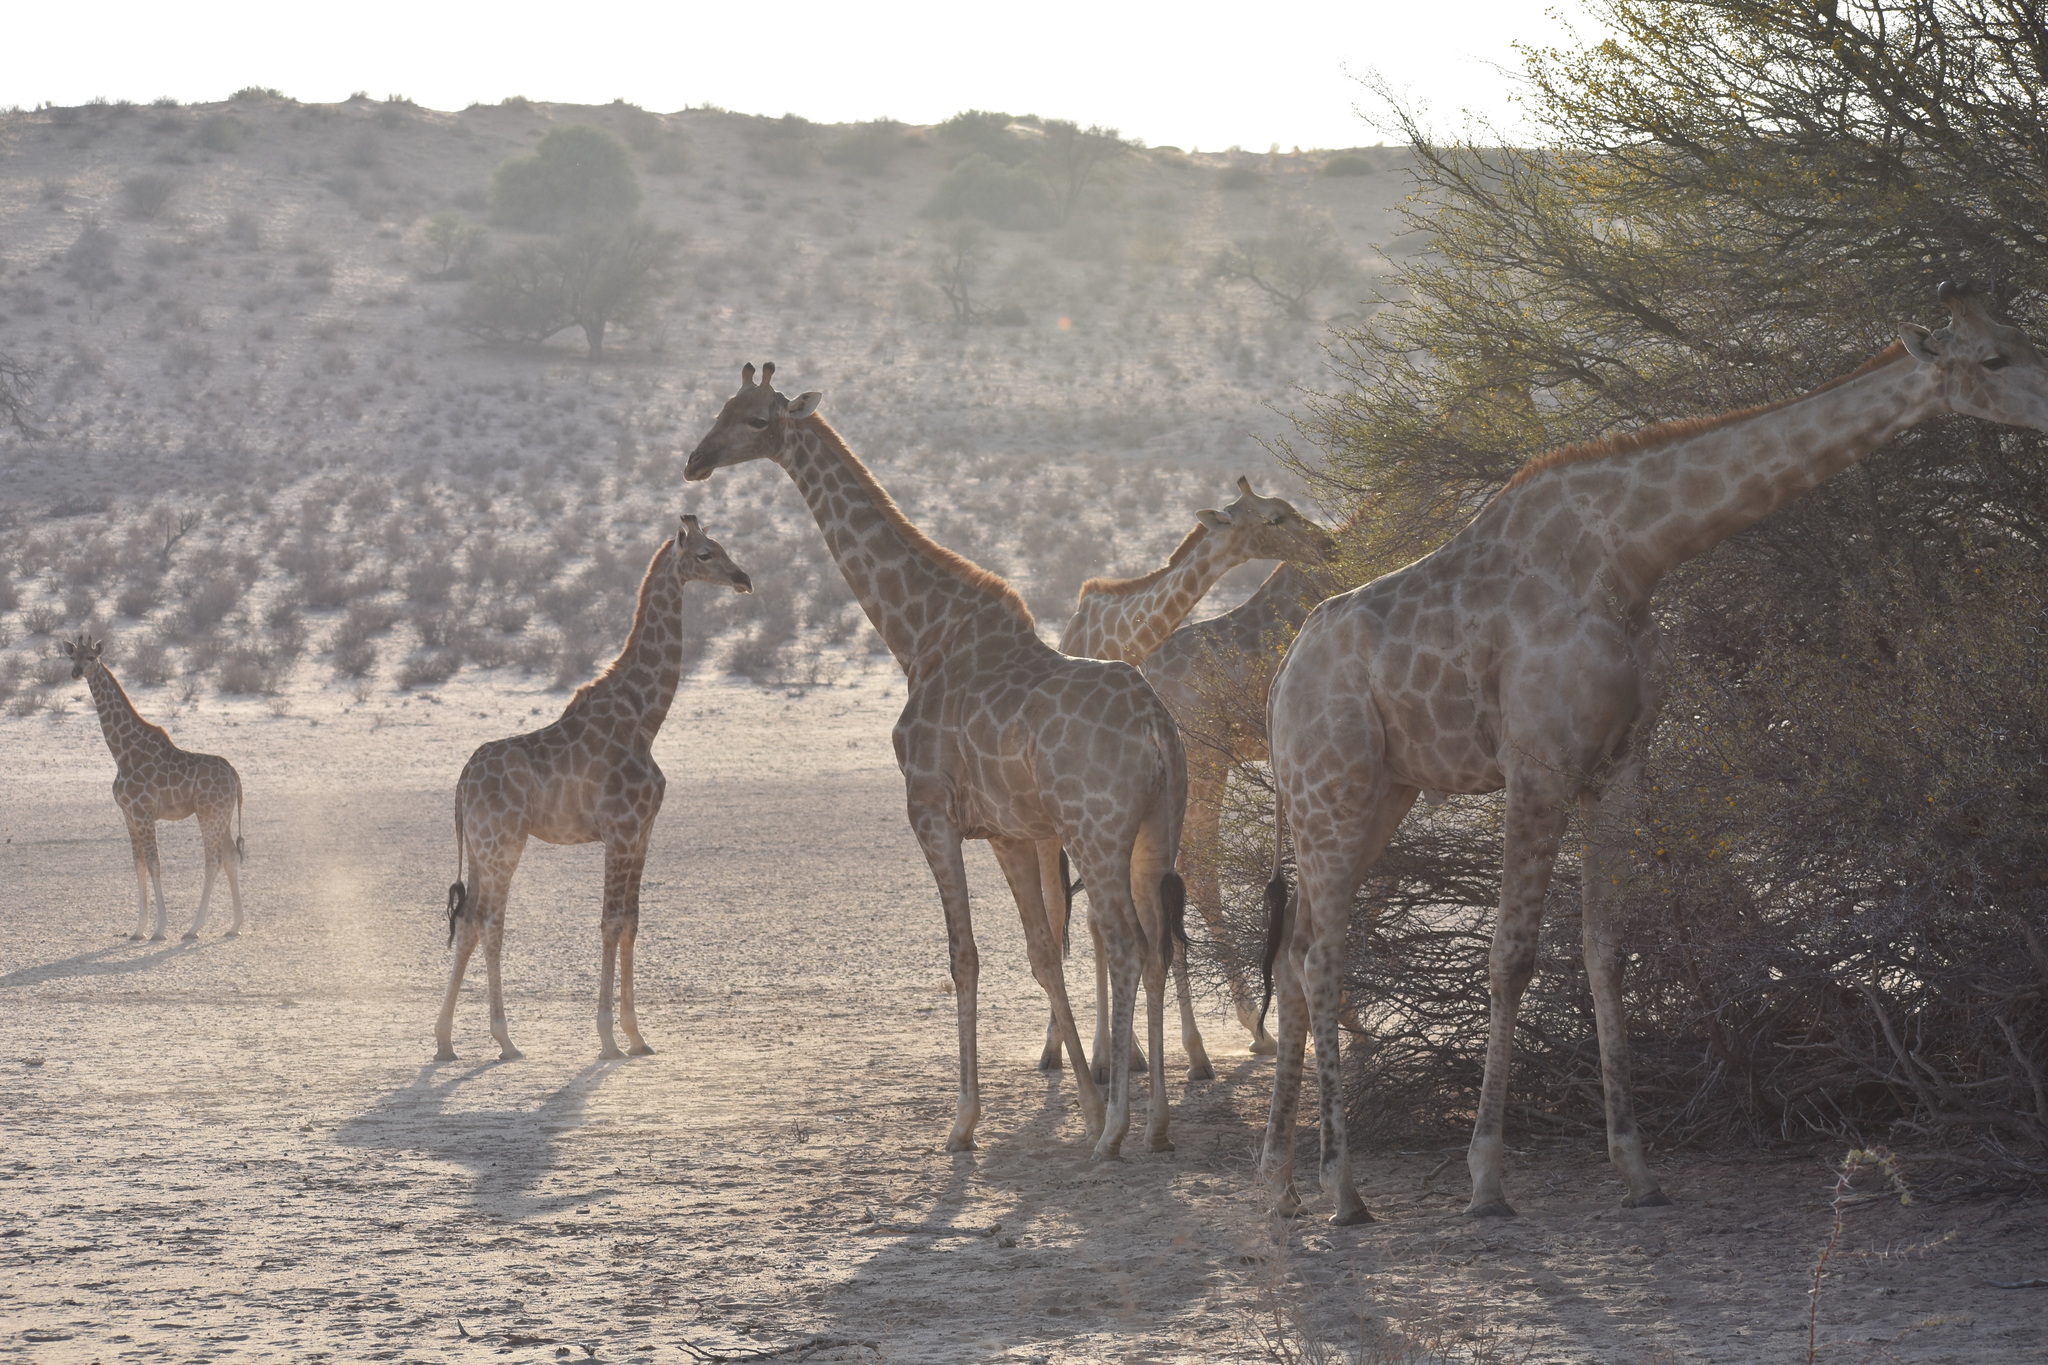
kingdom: Animalia
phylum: Chordata
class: Mammalia
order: Artiodactyla
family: Giraffidae
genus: Giraffa
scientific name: Giraffa giraffa
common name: Southern giraffe
